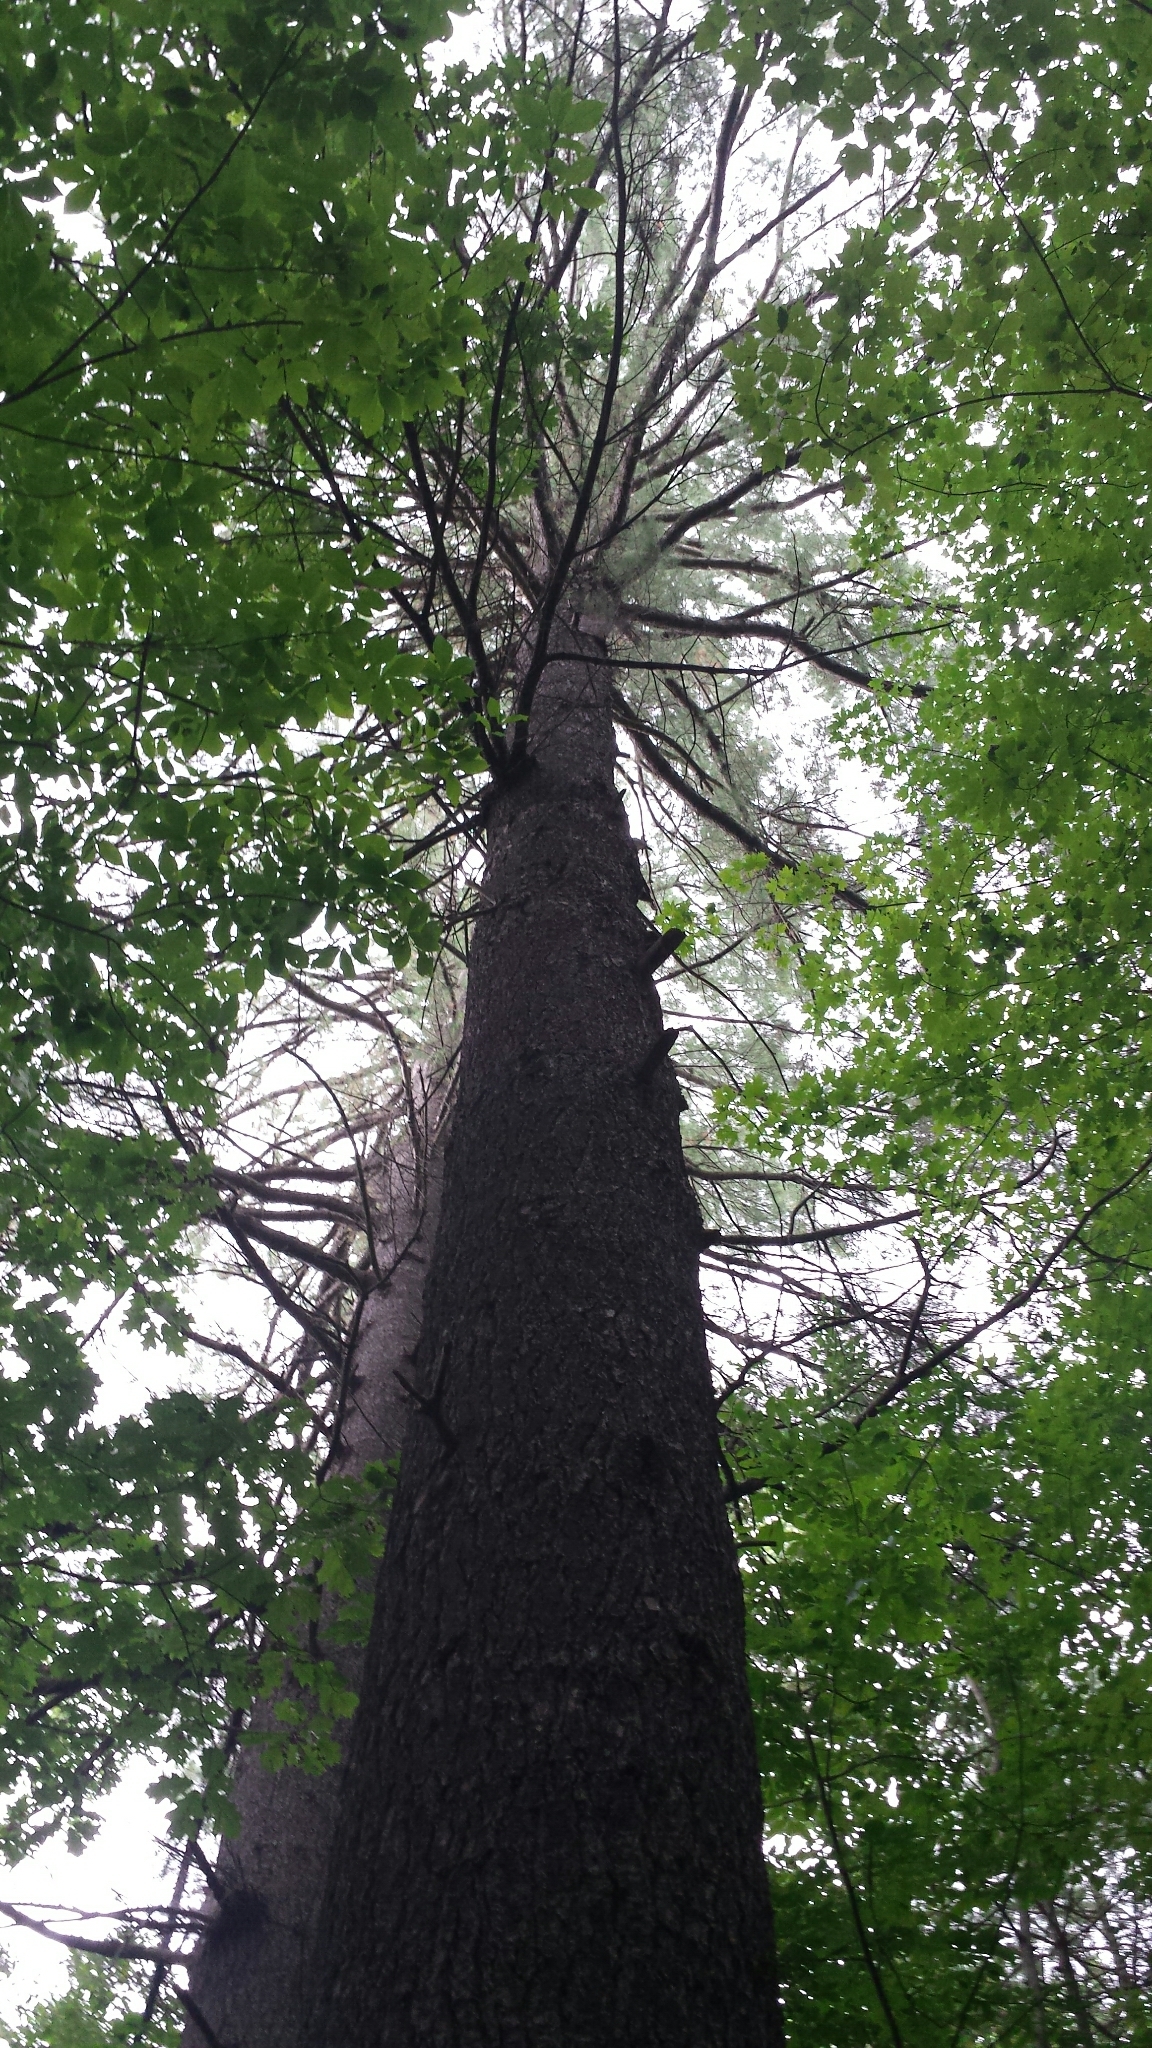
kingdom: Plantae
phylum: Tracheophyta
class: Pinopsida
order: Pinales
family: Pinaceae
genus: Pinus
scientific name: Pinus strobus
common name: Weymouth pine
